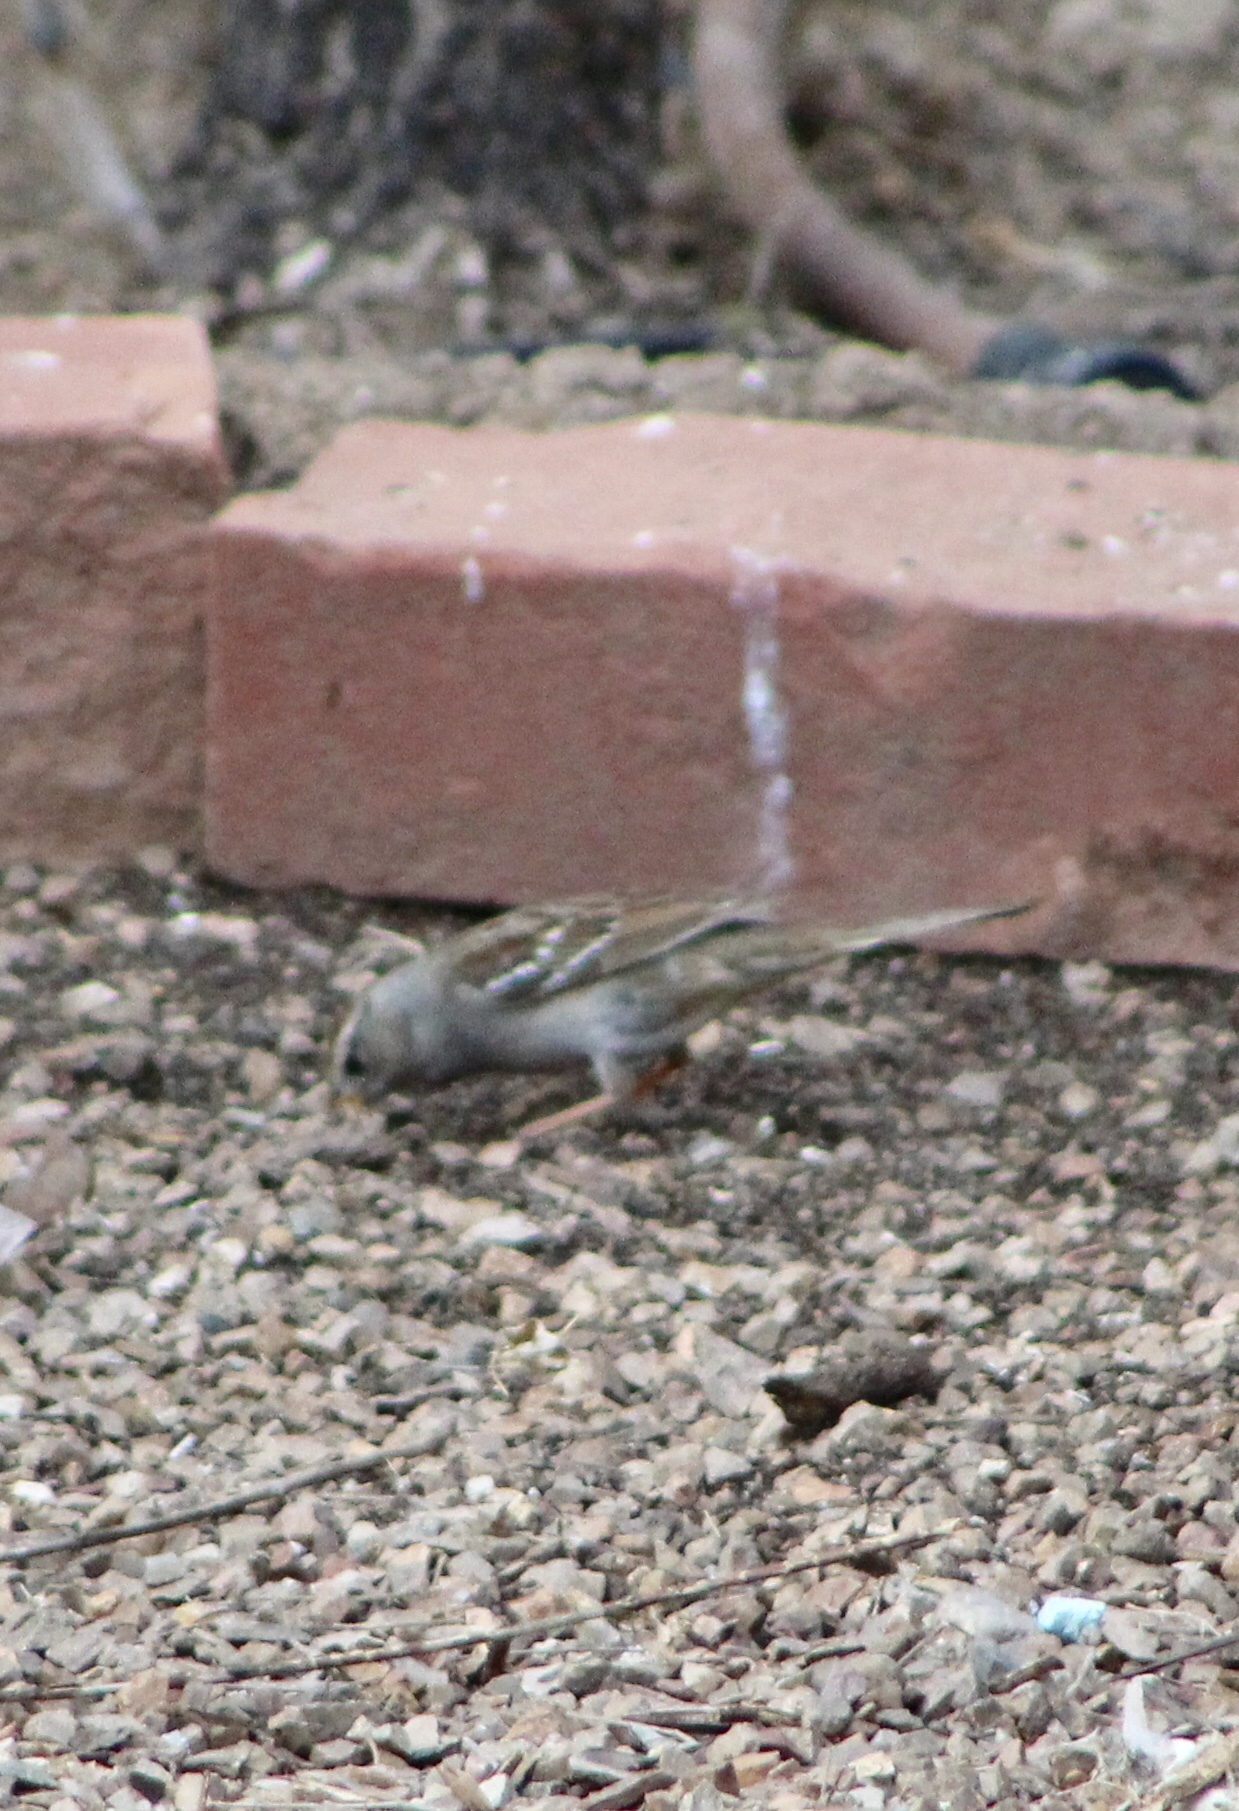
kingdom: Animalia
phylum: Chordata
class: Aves
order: Passeriformes
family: Passerellidae
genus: Zonotrichia
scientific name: Zonotrichia leucophrys
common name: White-crowned sparrow
